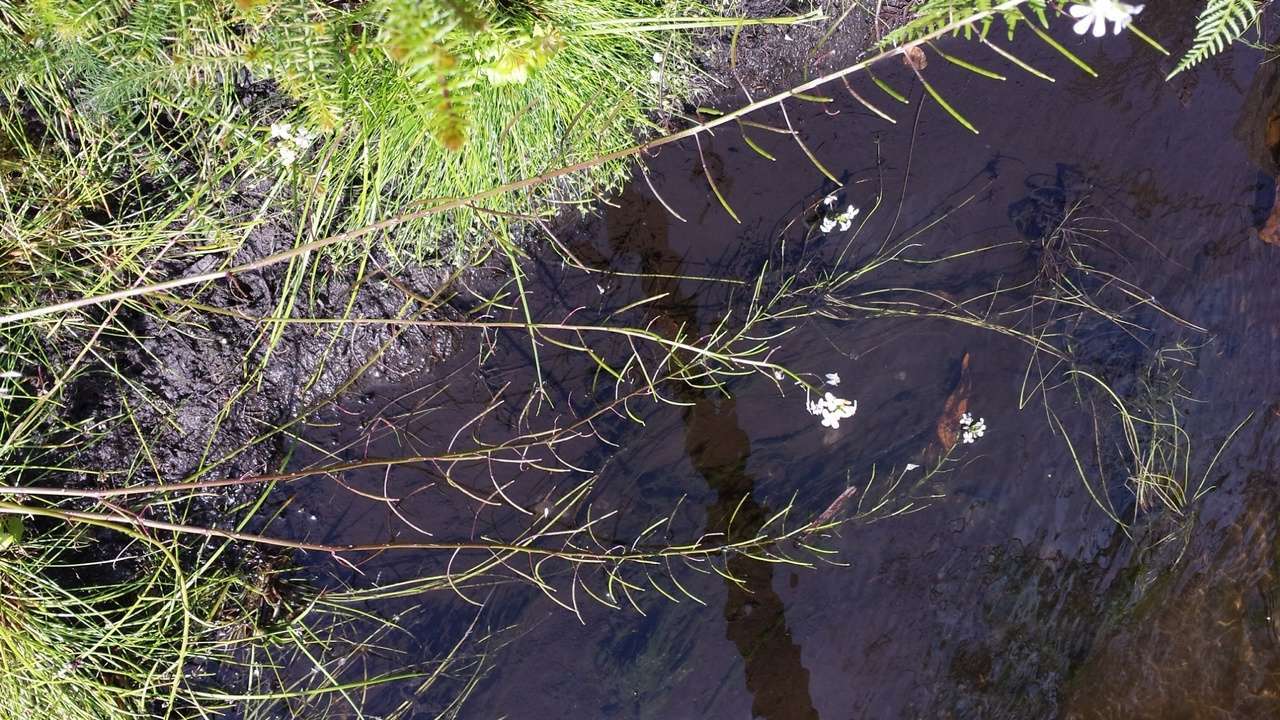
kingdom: Plantae
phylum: Tracheophyta
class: Magnoliopsida
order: Brassicales
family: Brassicaceae
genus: Rorippa
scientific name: Rorippa dictyosperma
